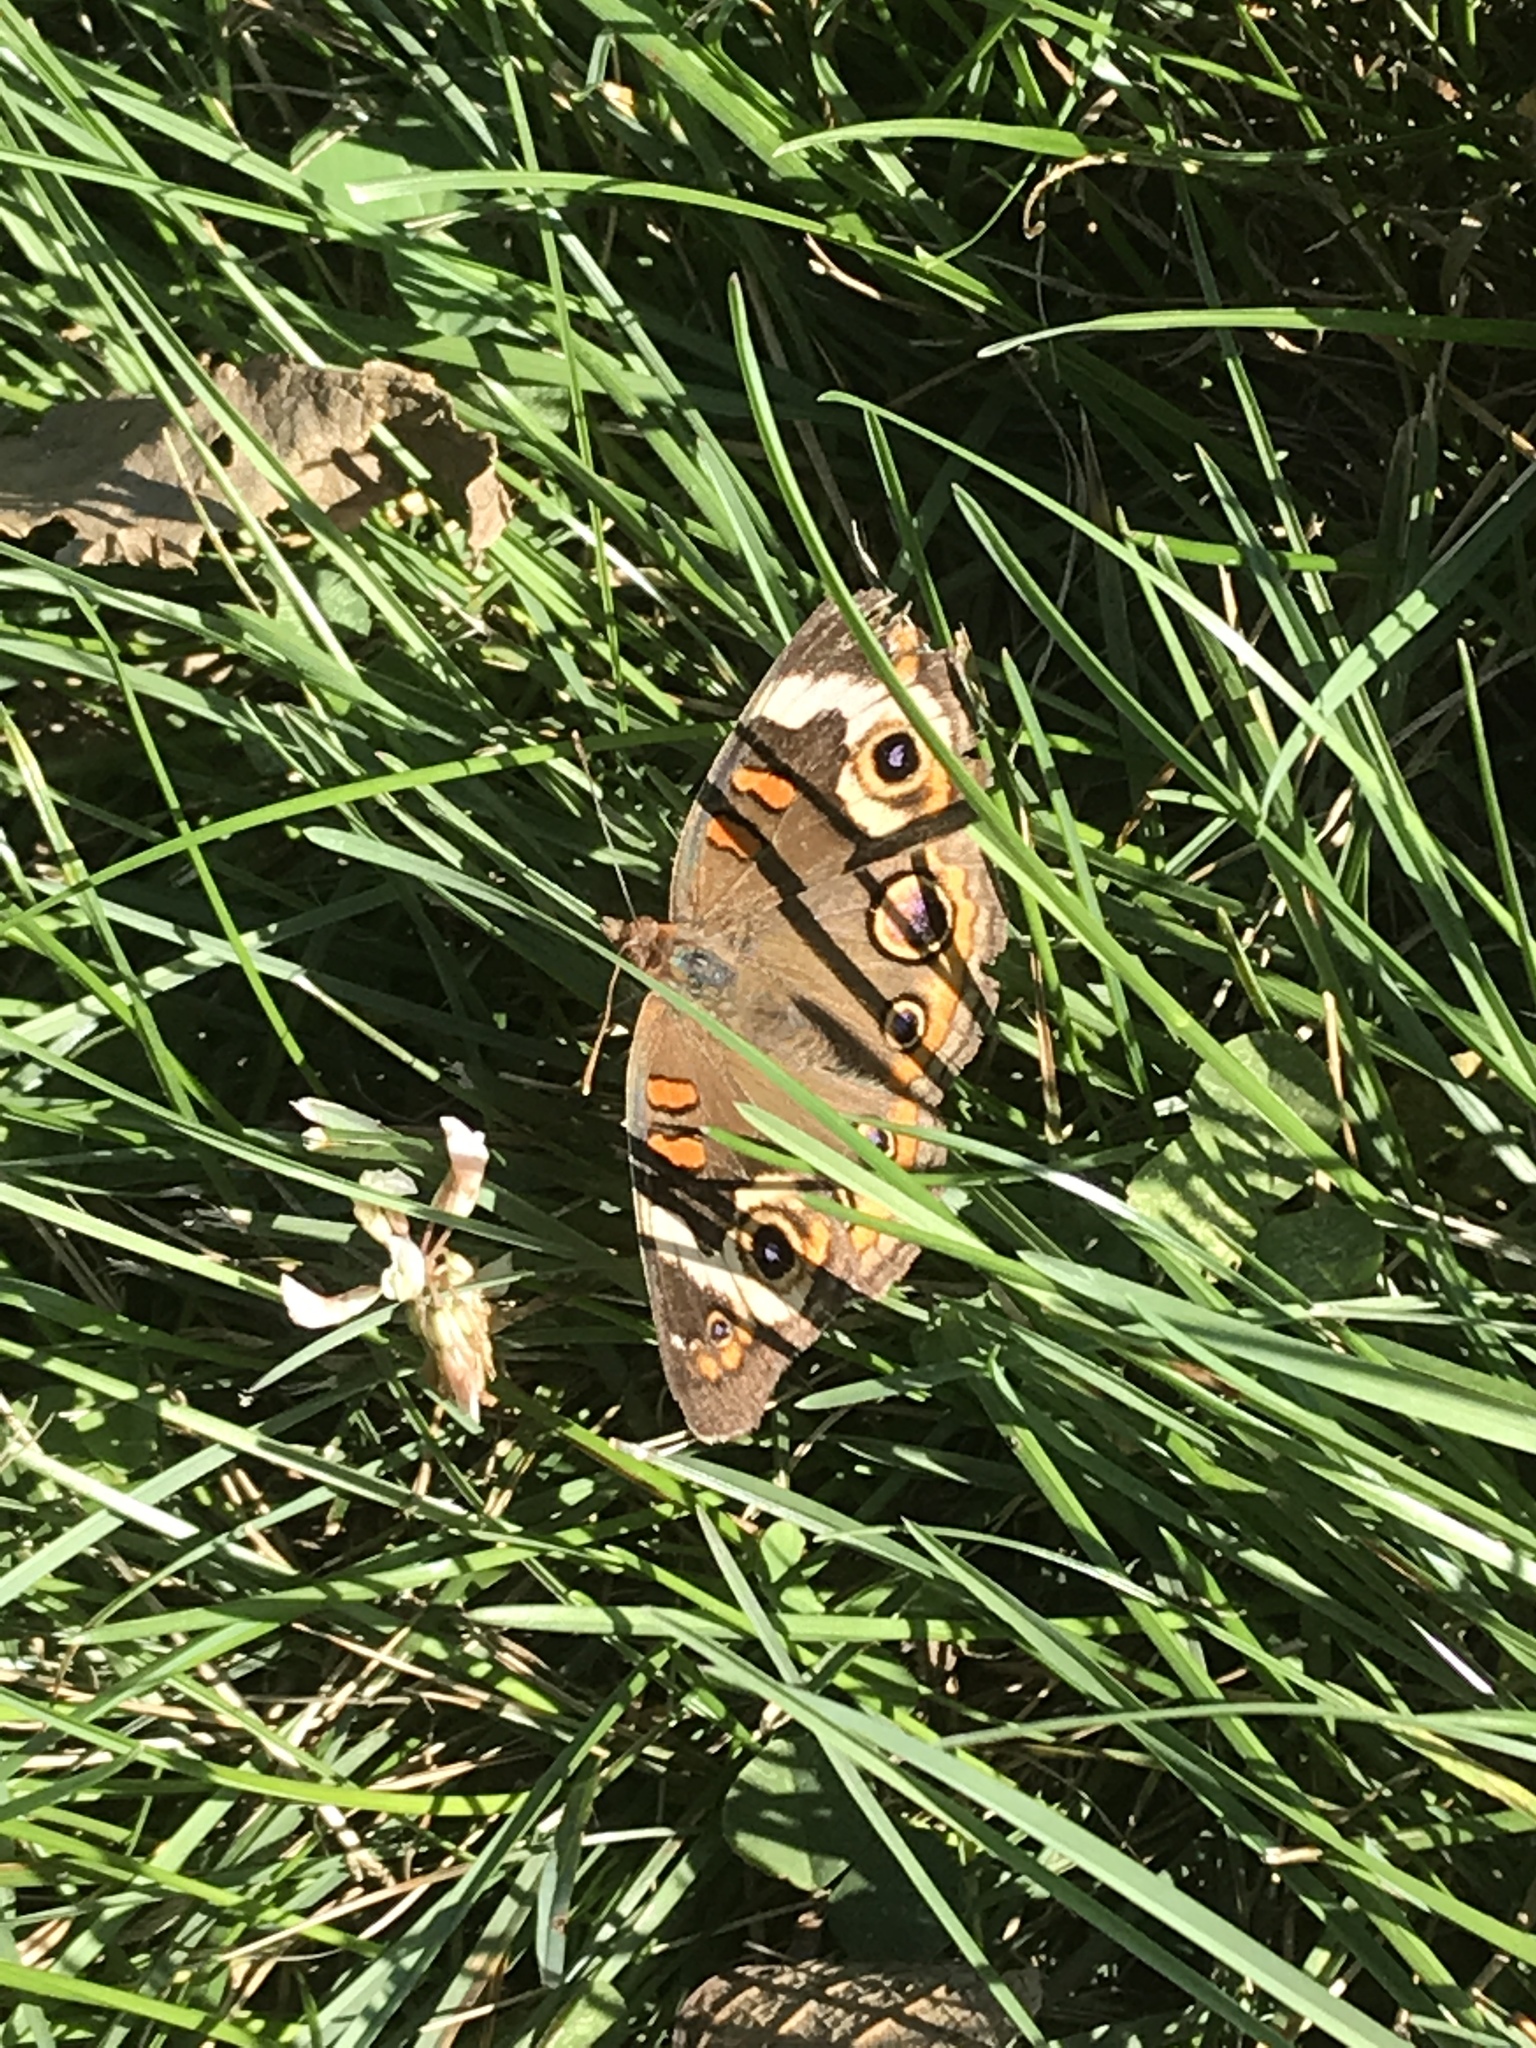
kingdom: Animalia
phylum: Arthropoda
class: Insecta
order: Lepidoptera
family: Nymphalidae
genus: Junonia
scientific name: Junonia coenia
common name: Common buckeye
